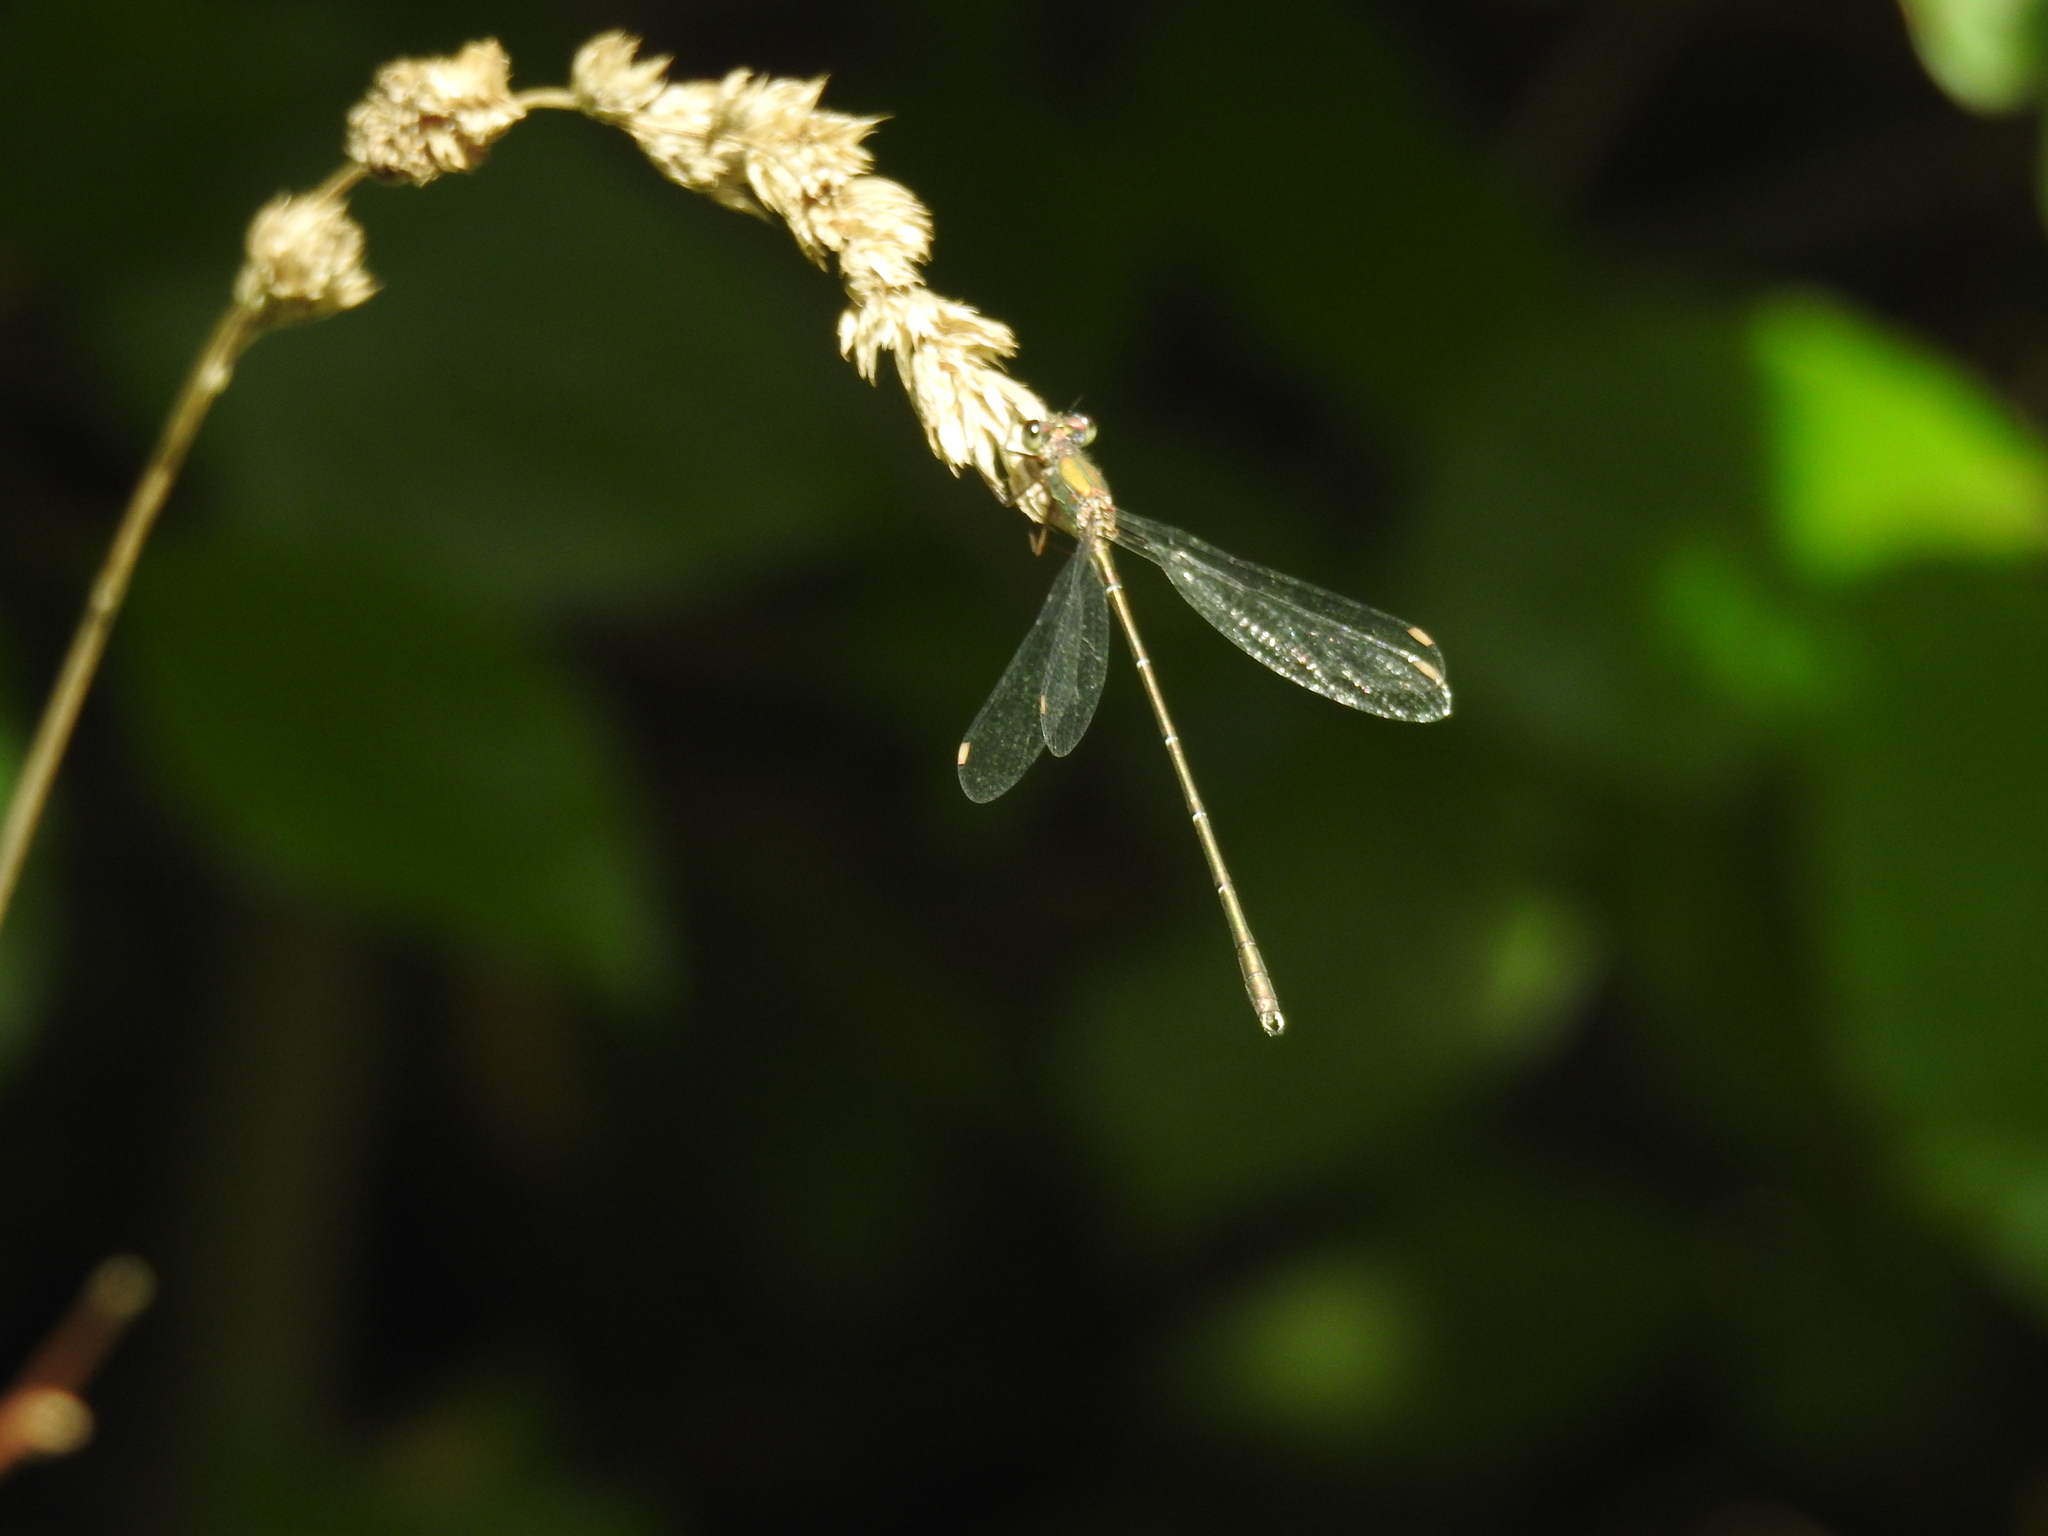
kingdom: Animalia
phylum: Arthropoda
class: Insecta
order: Odonata
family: Lestidae
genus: Chalcolestes
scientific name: Chalcolestes viridis
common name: Green emerald damselfly
